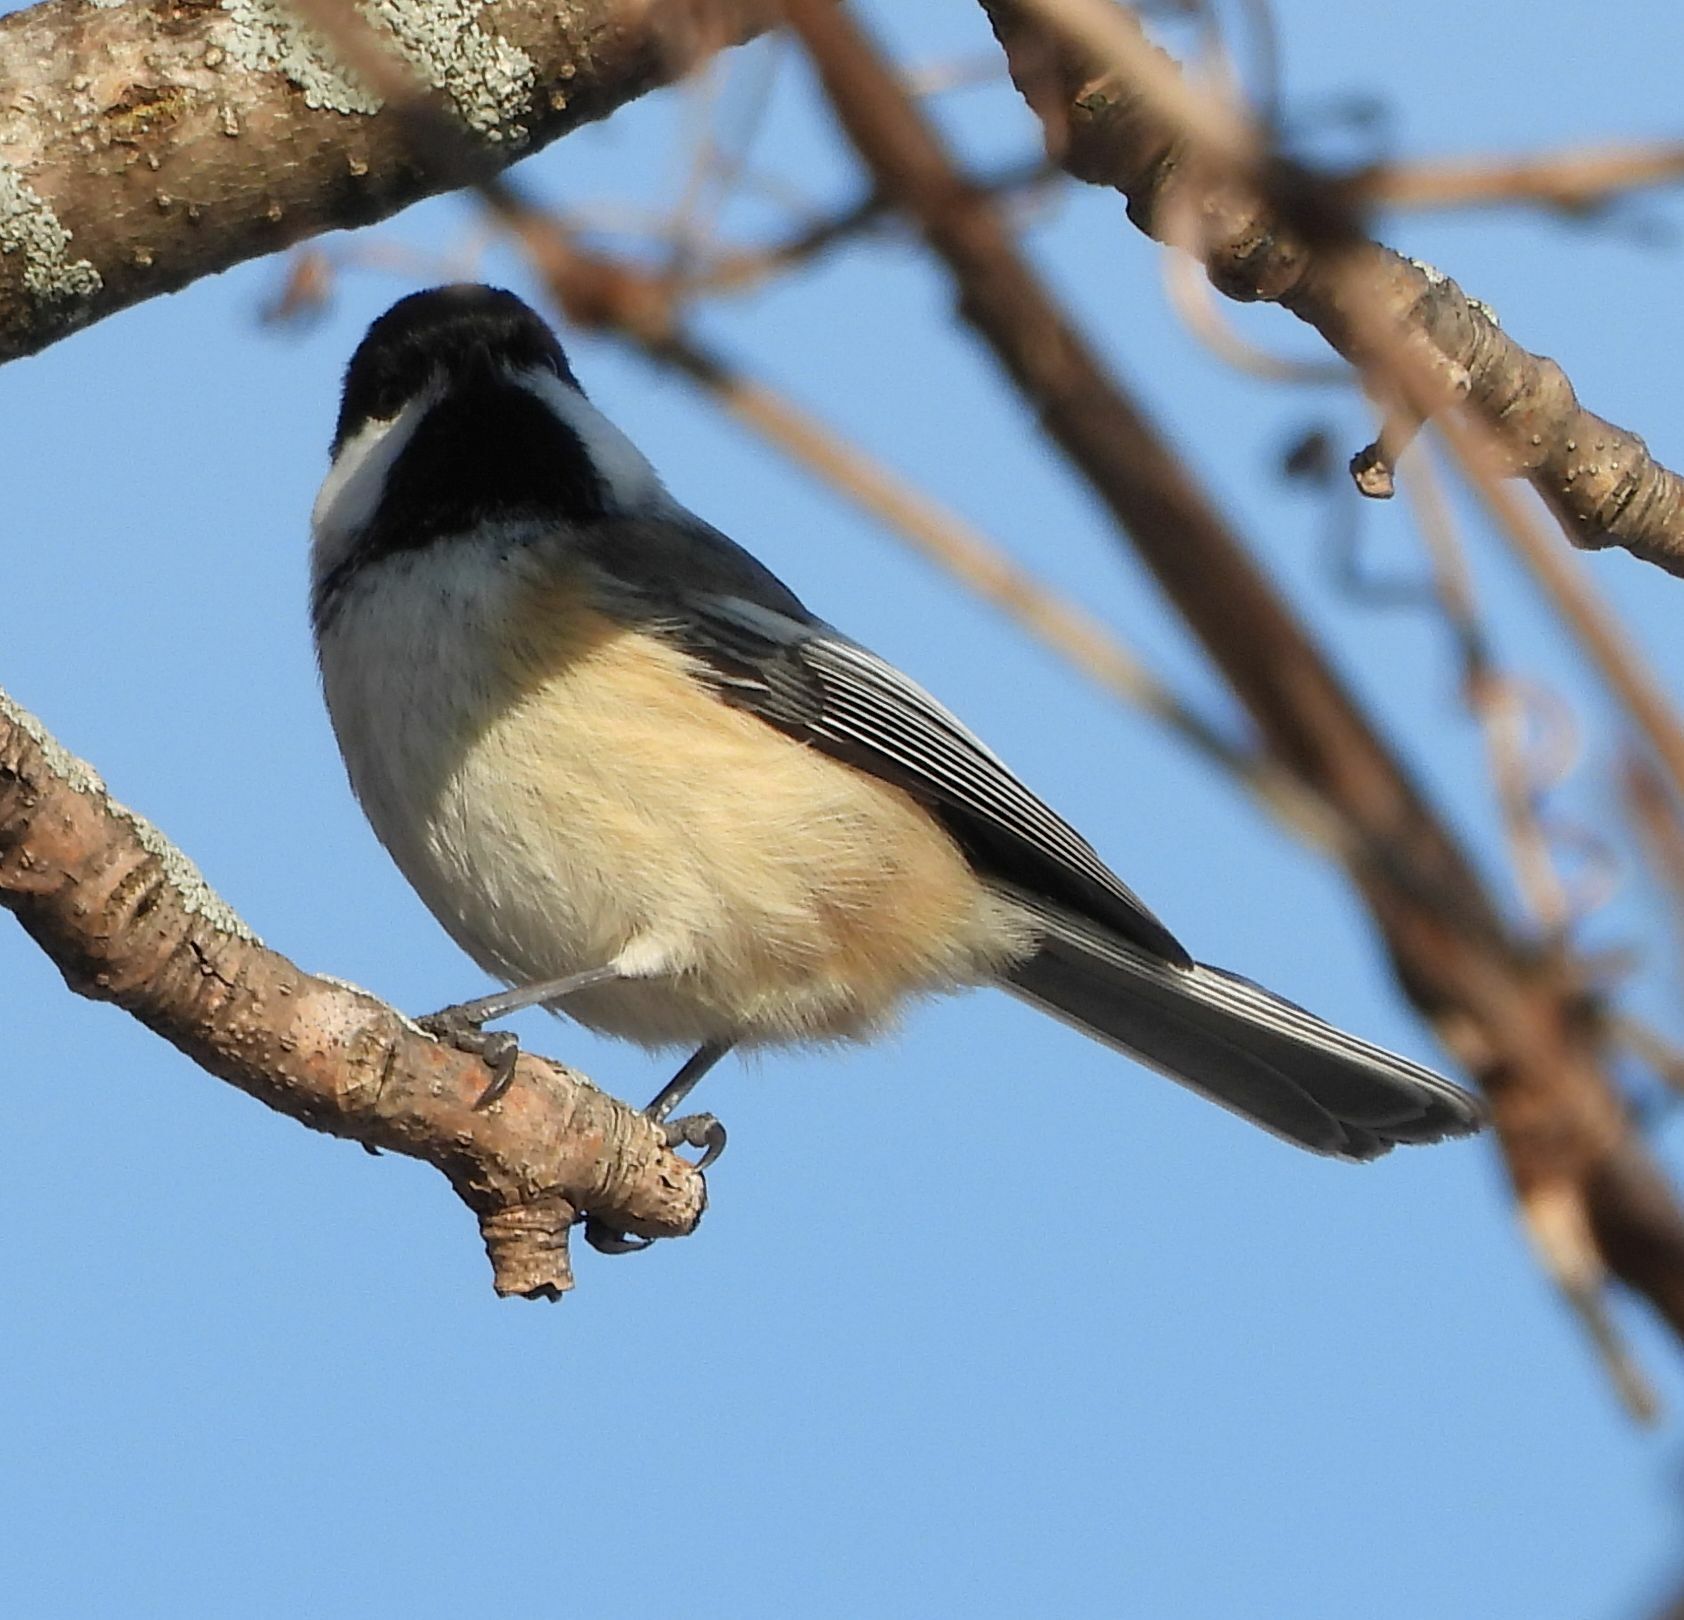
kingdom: Animalia
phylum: Chordata
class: Aves
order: Passeriformes
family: Paridae
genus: Poecile
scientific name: Poecile atricapillus
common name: Black-capped chickadee
